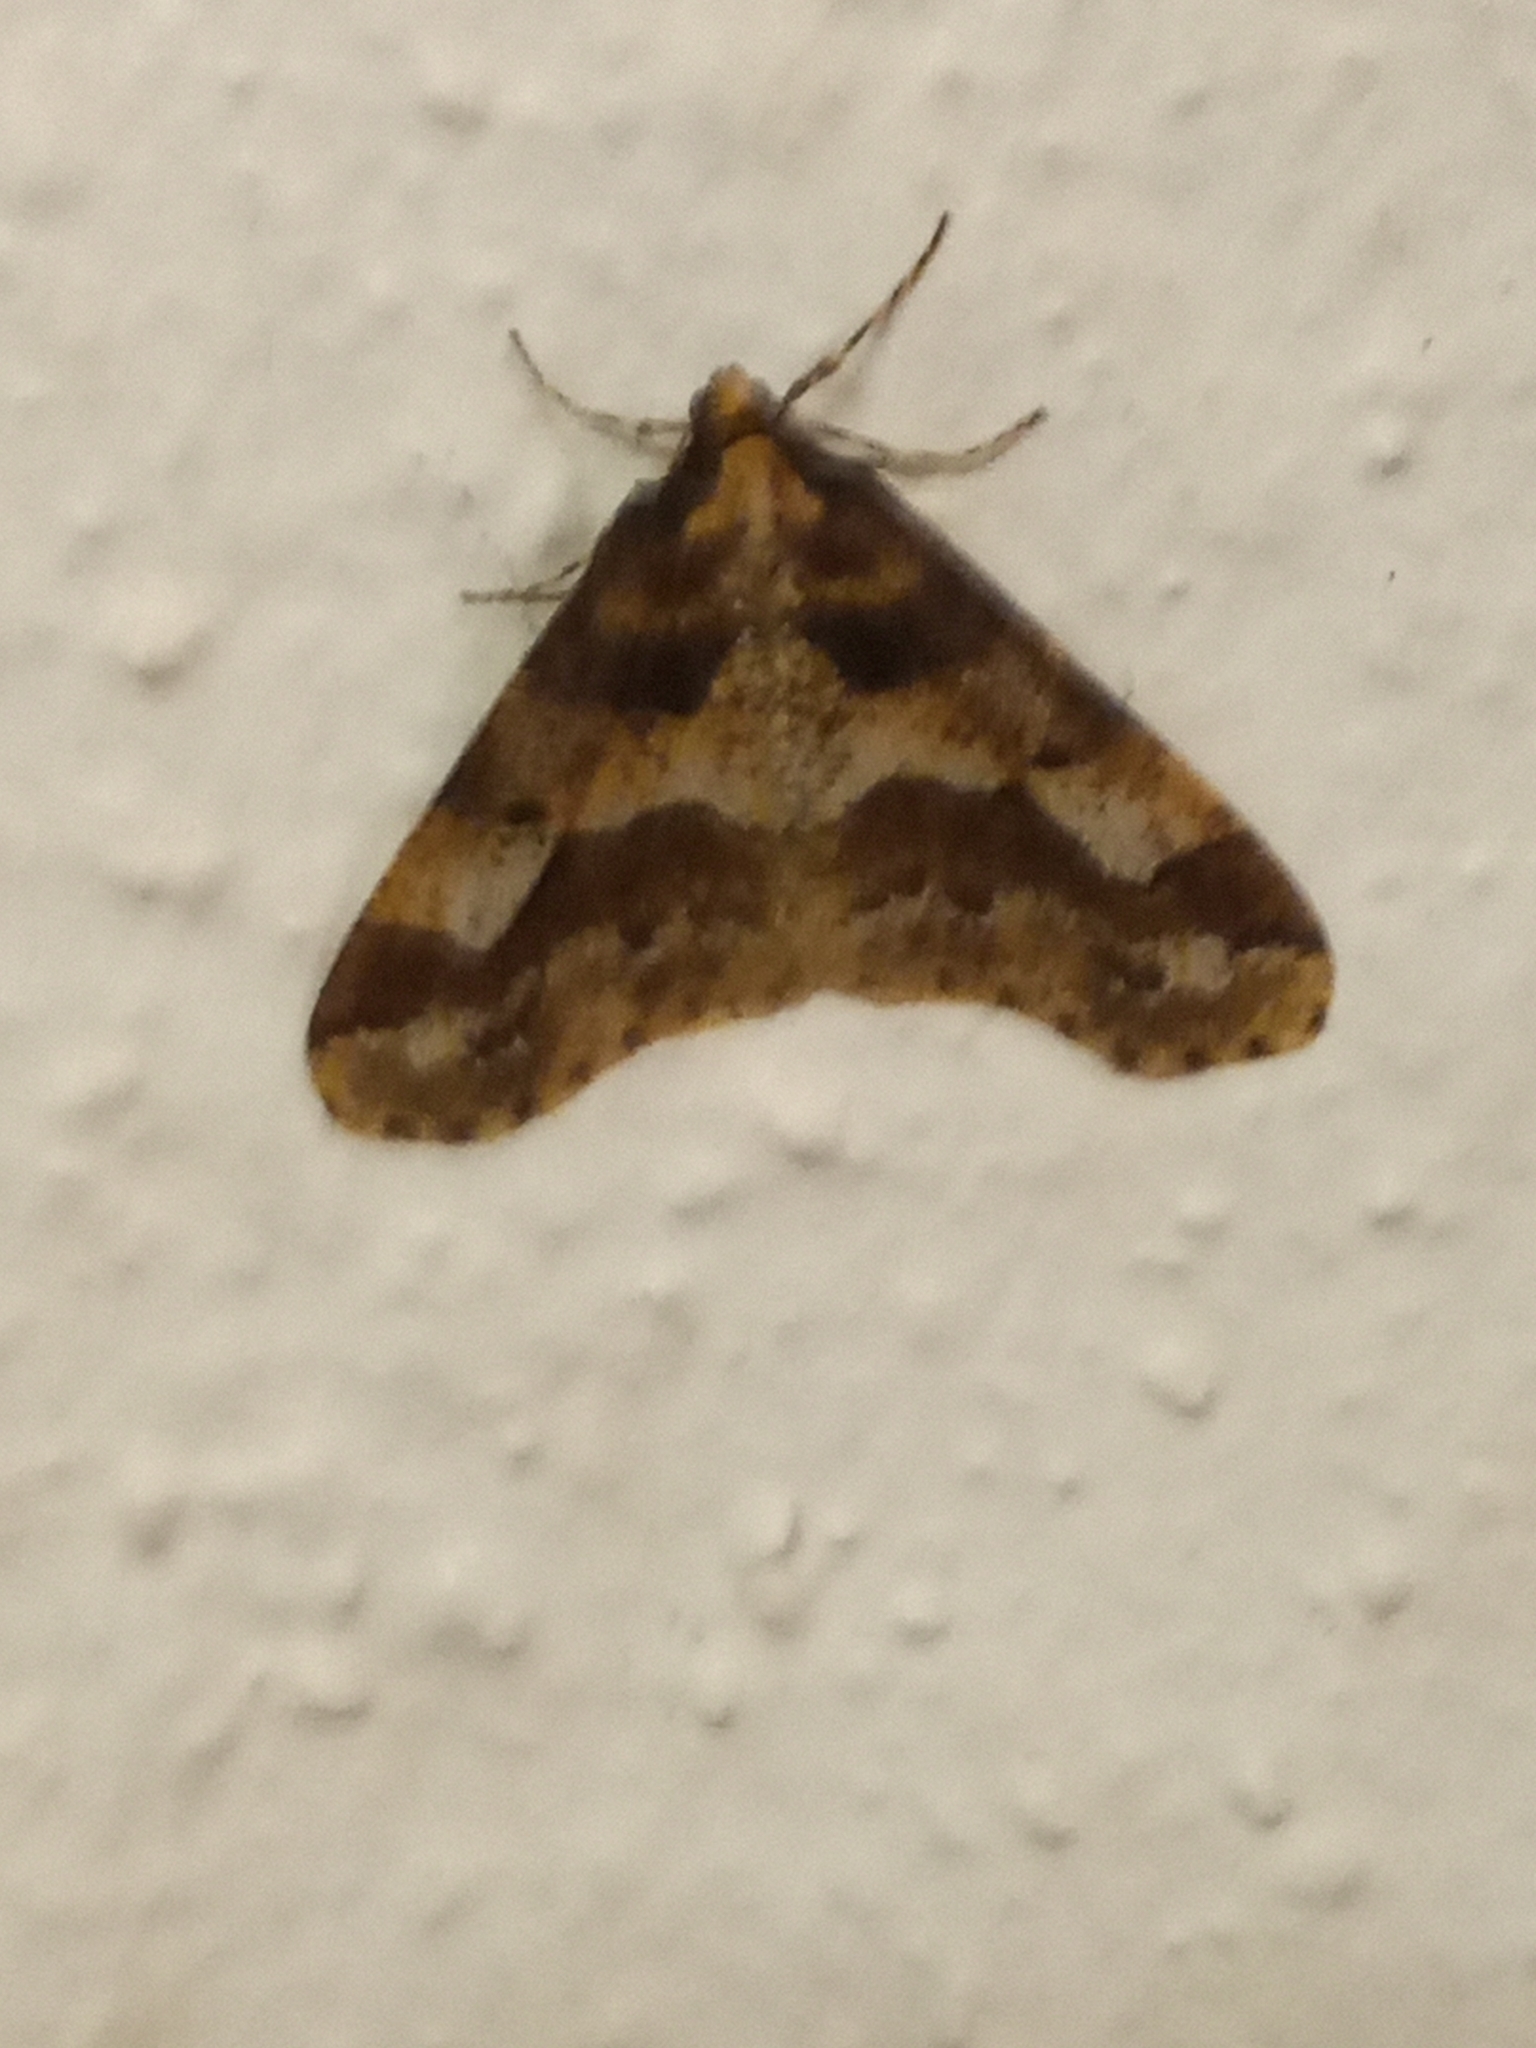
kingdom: Animalia
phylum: Arthropoda
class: Insecta
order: Lepidoptera
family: Geometridae
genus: Erannis
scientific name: Erannis defoliaria
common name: Mottled umber
